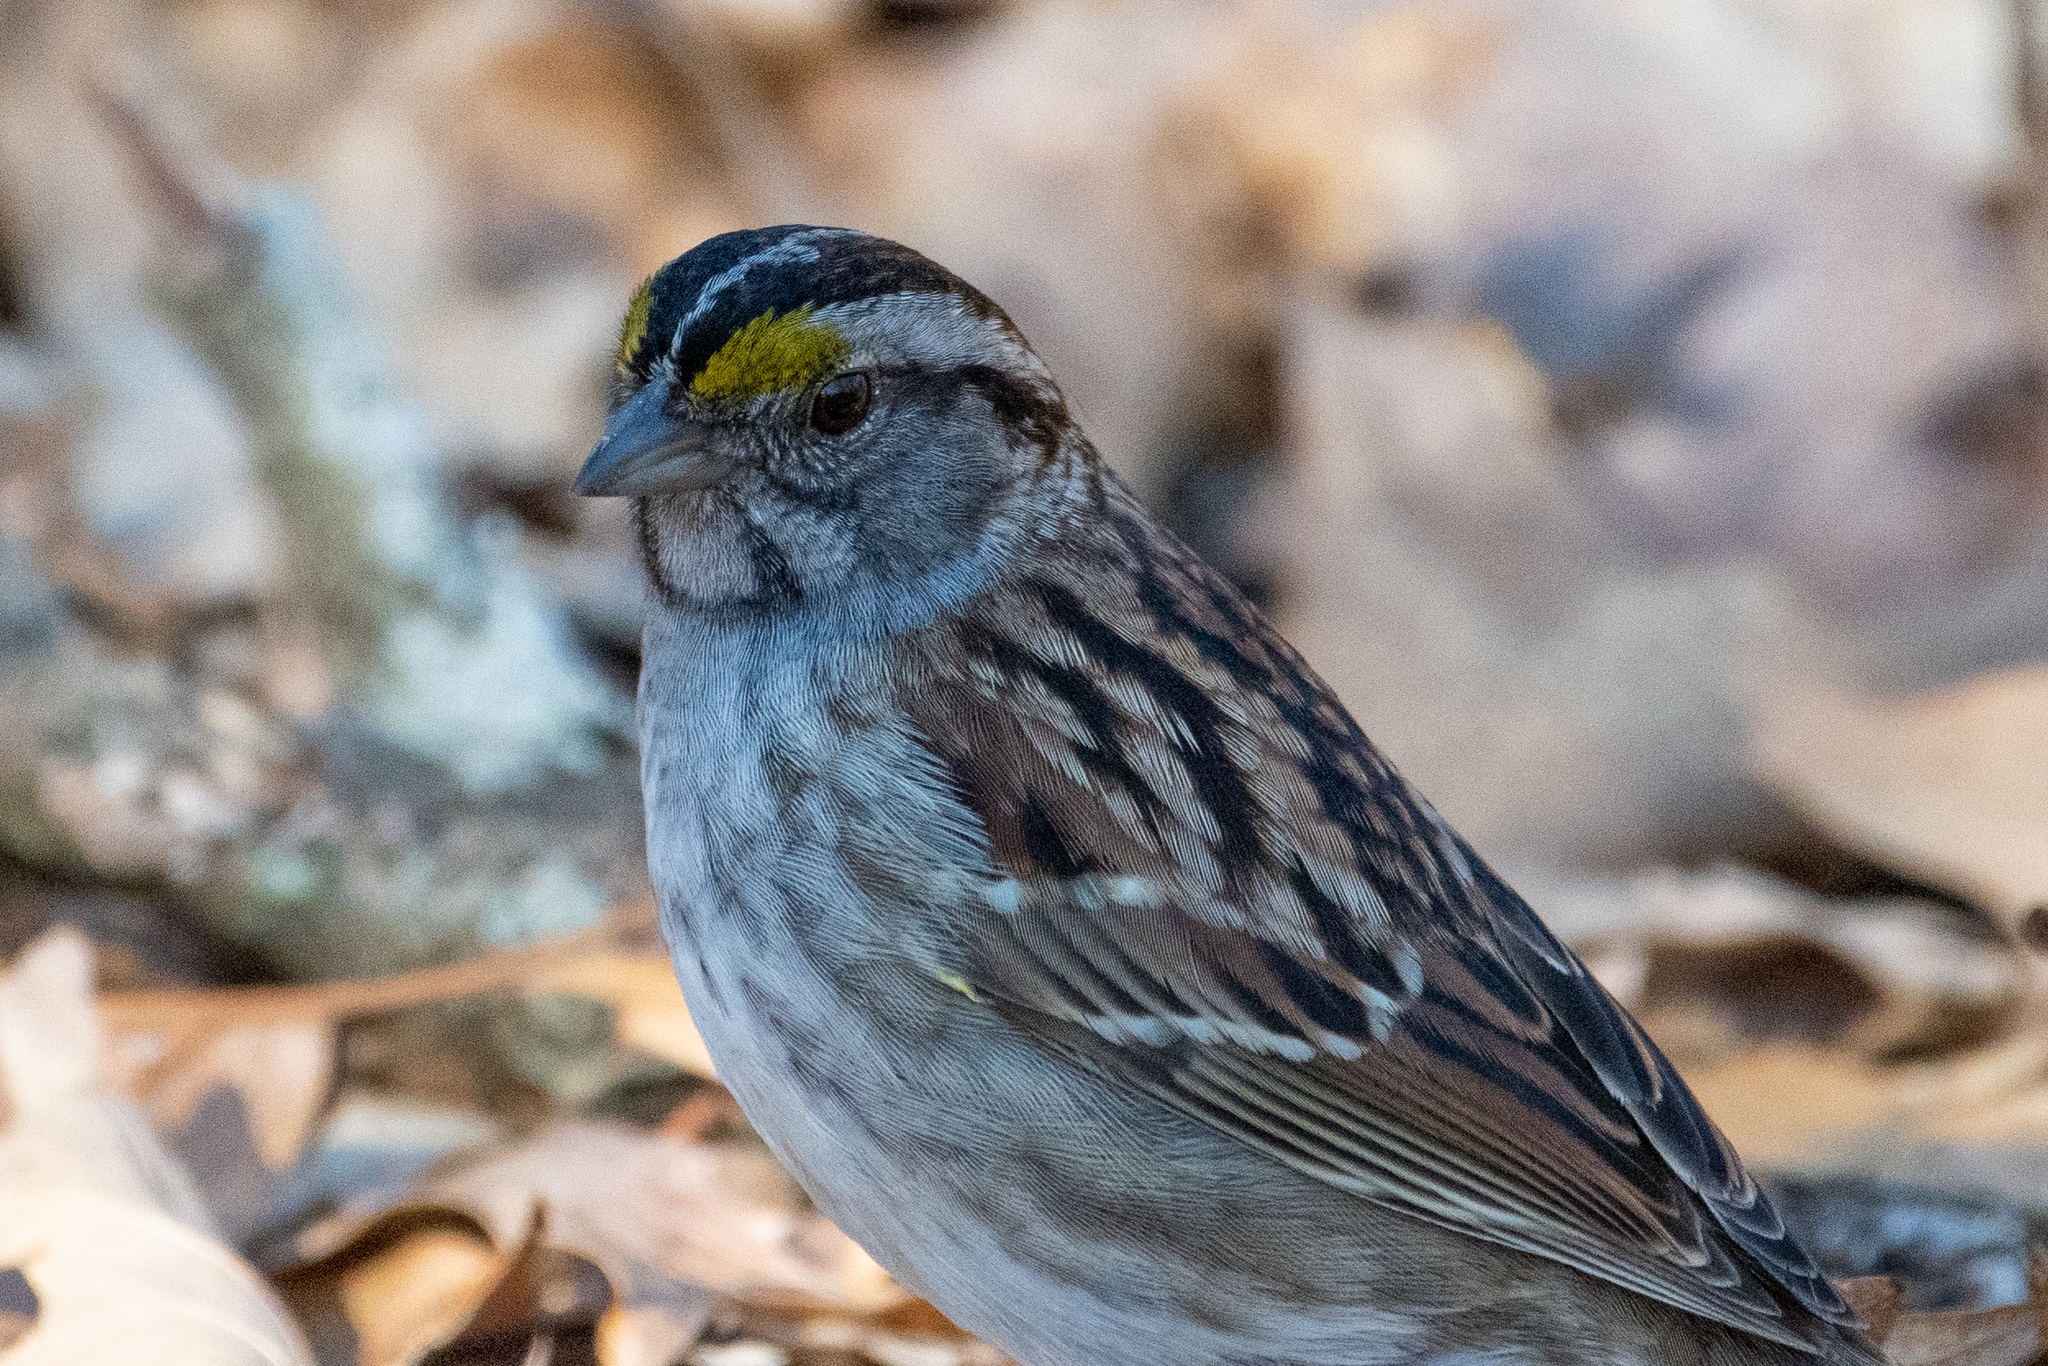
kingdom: Animalia
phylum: Chordata
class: Aves
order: Passeriformes
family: Passerellidae
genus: Zonotrichia
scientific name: Zonotrichia albicollis
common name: White-throated sparrow
